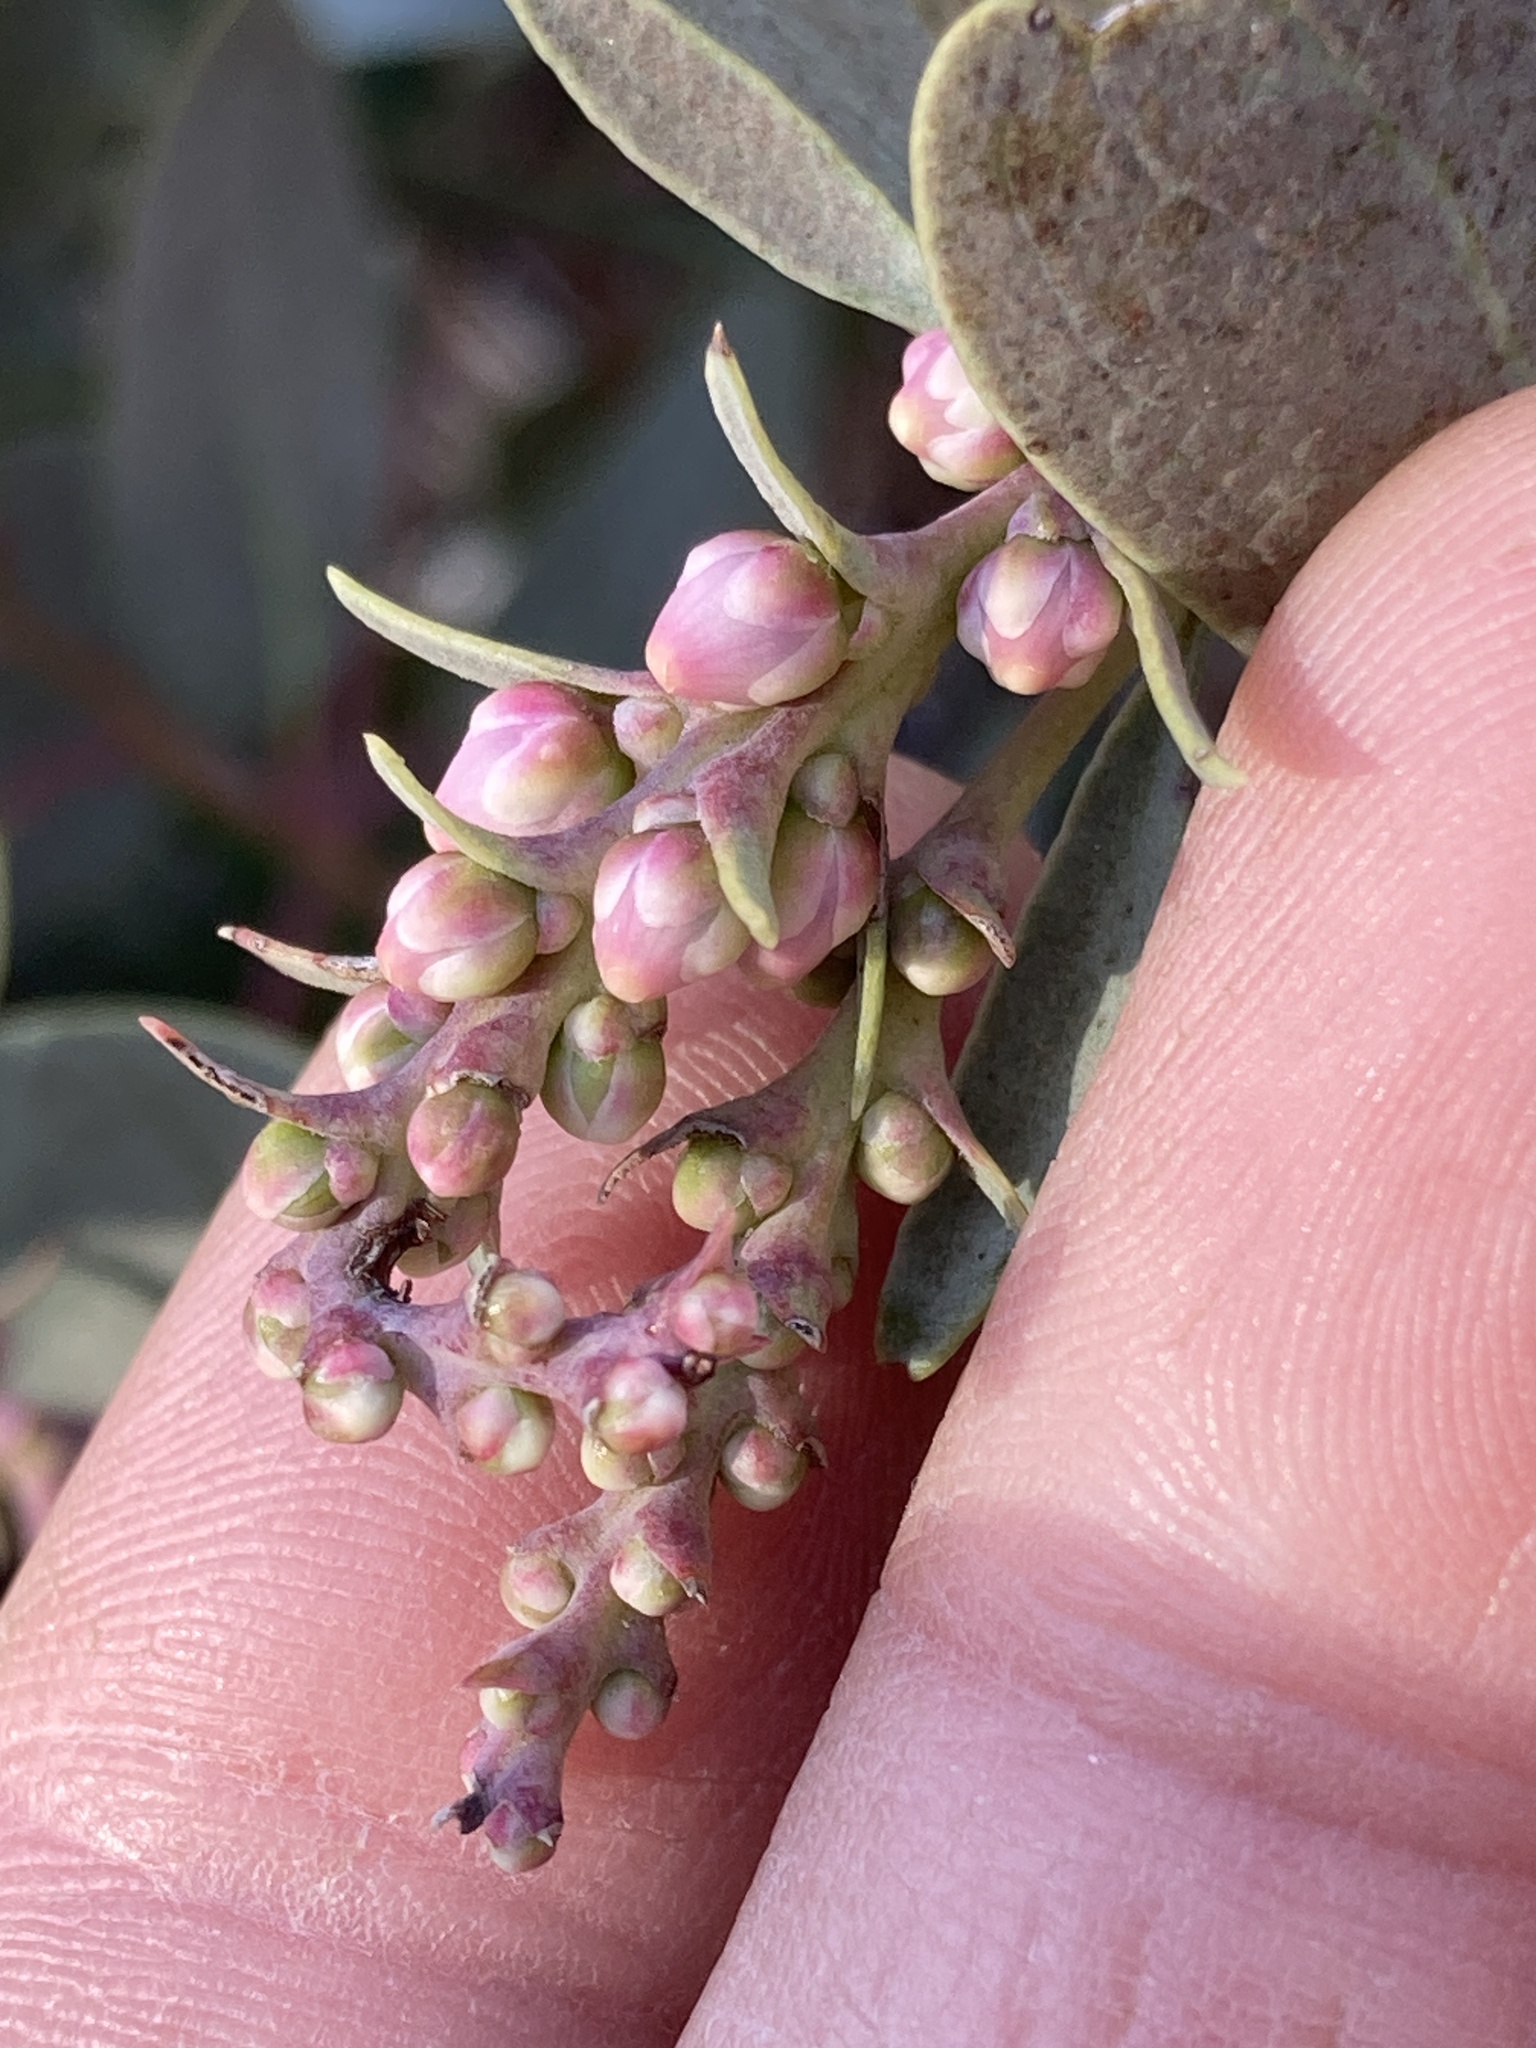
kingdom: Plantae
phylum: Tracheophyta
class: Magnoliopsida
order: Ericales
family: Ericaceae
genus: Arctostaphylos
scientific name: Arctostaphylos mewukka
